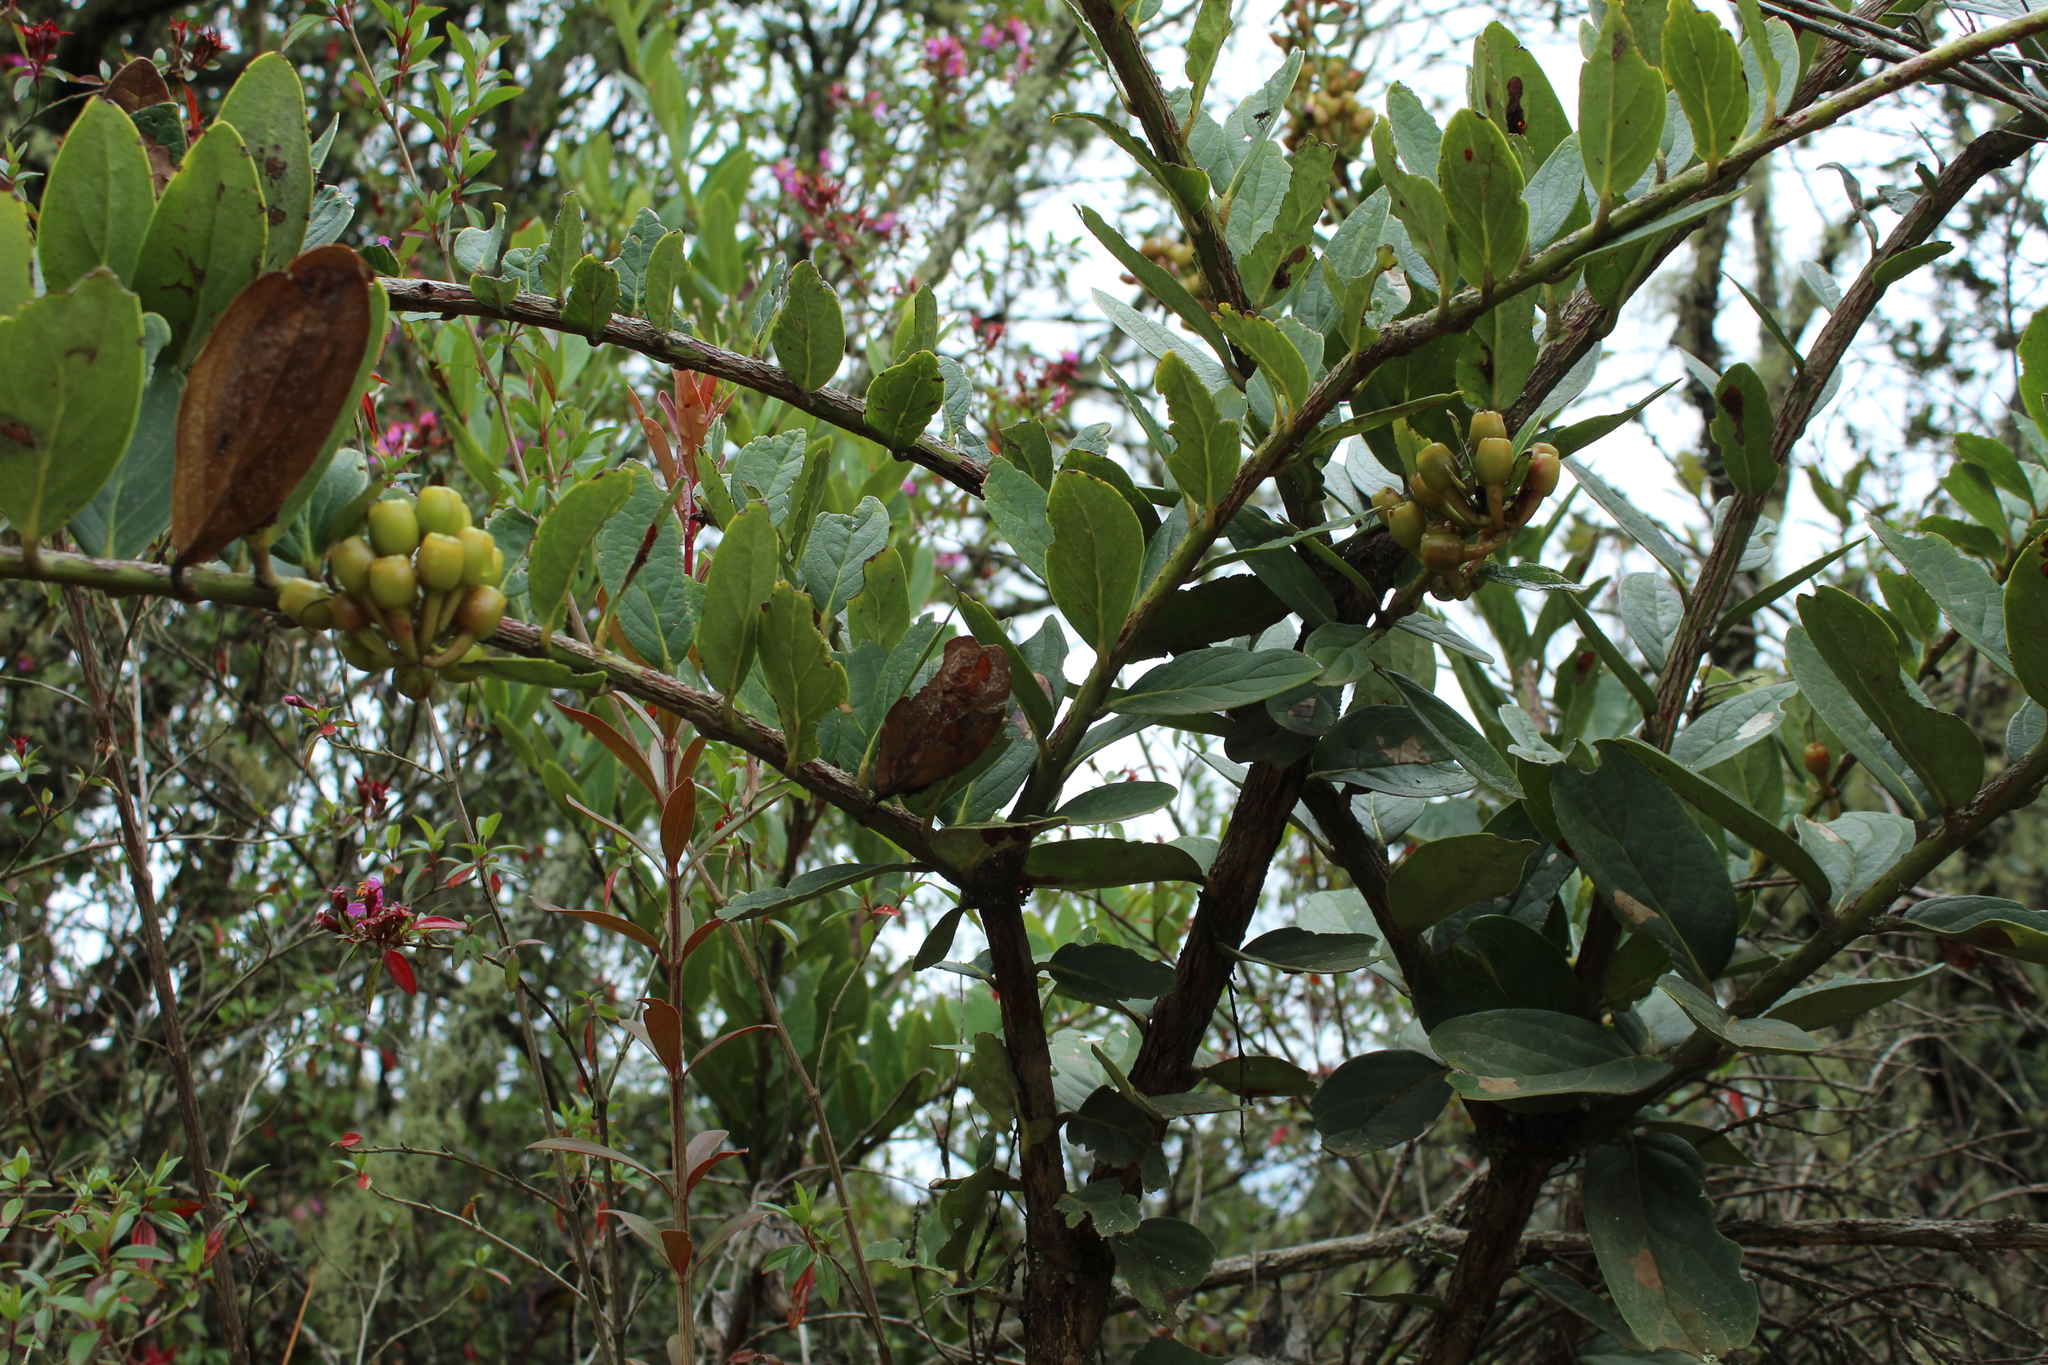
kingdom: Plantae
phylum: Tracheophyta
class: Magnoliopsida
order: Ericales
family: Ericaceae
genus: Macleania
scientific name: Macleania rupestris
